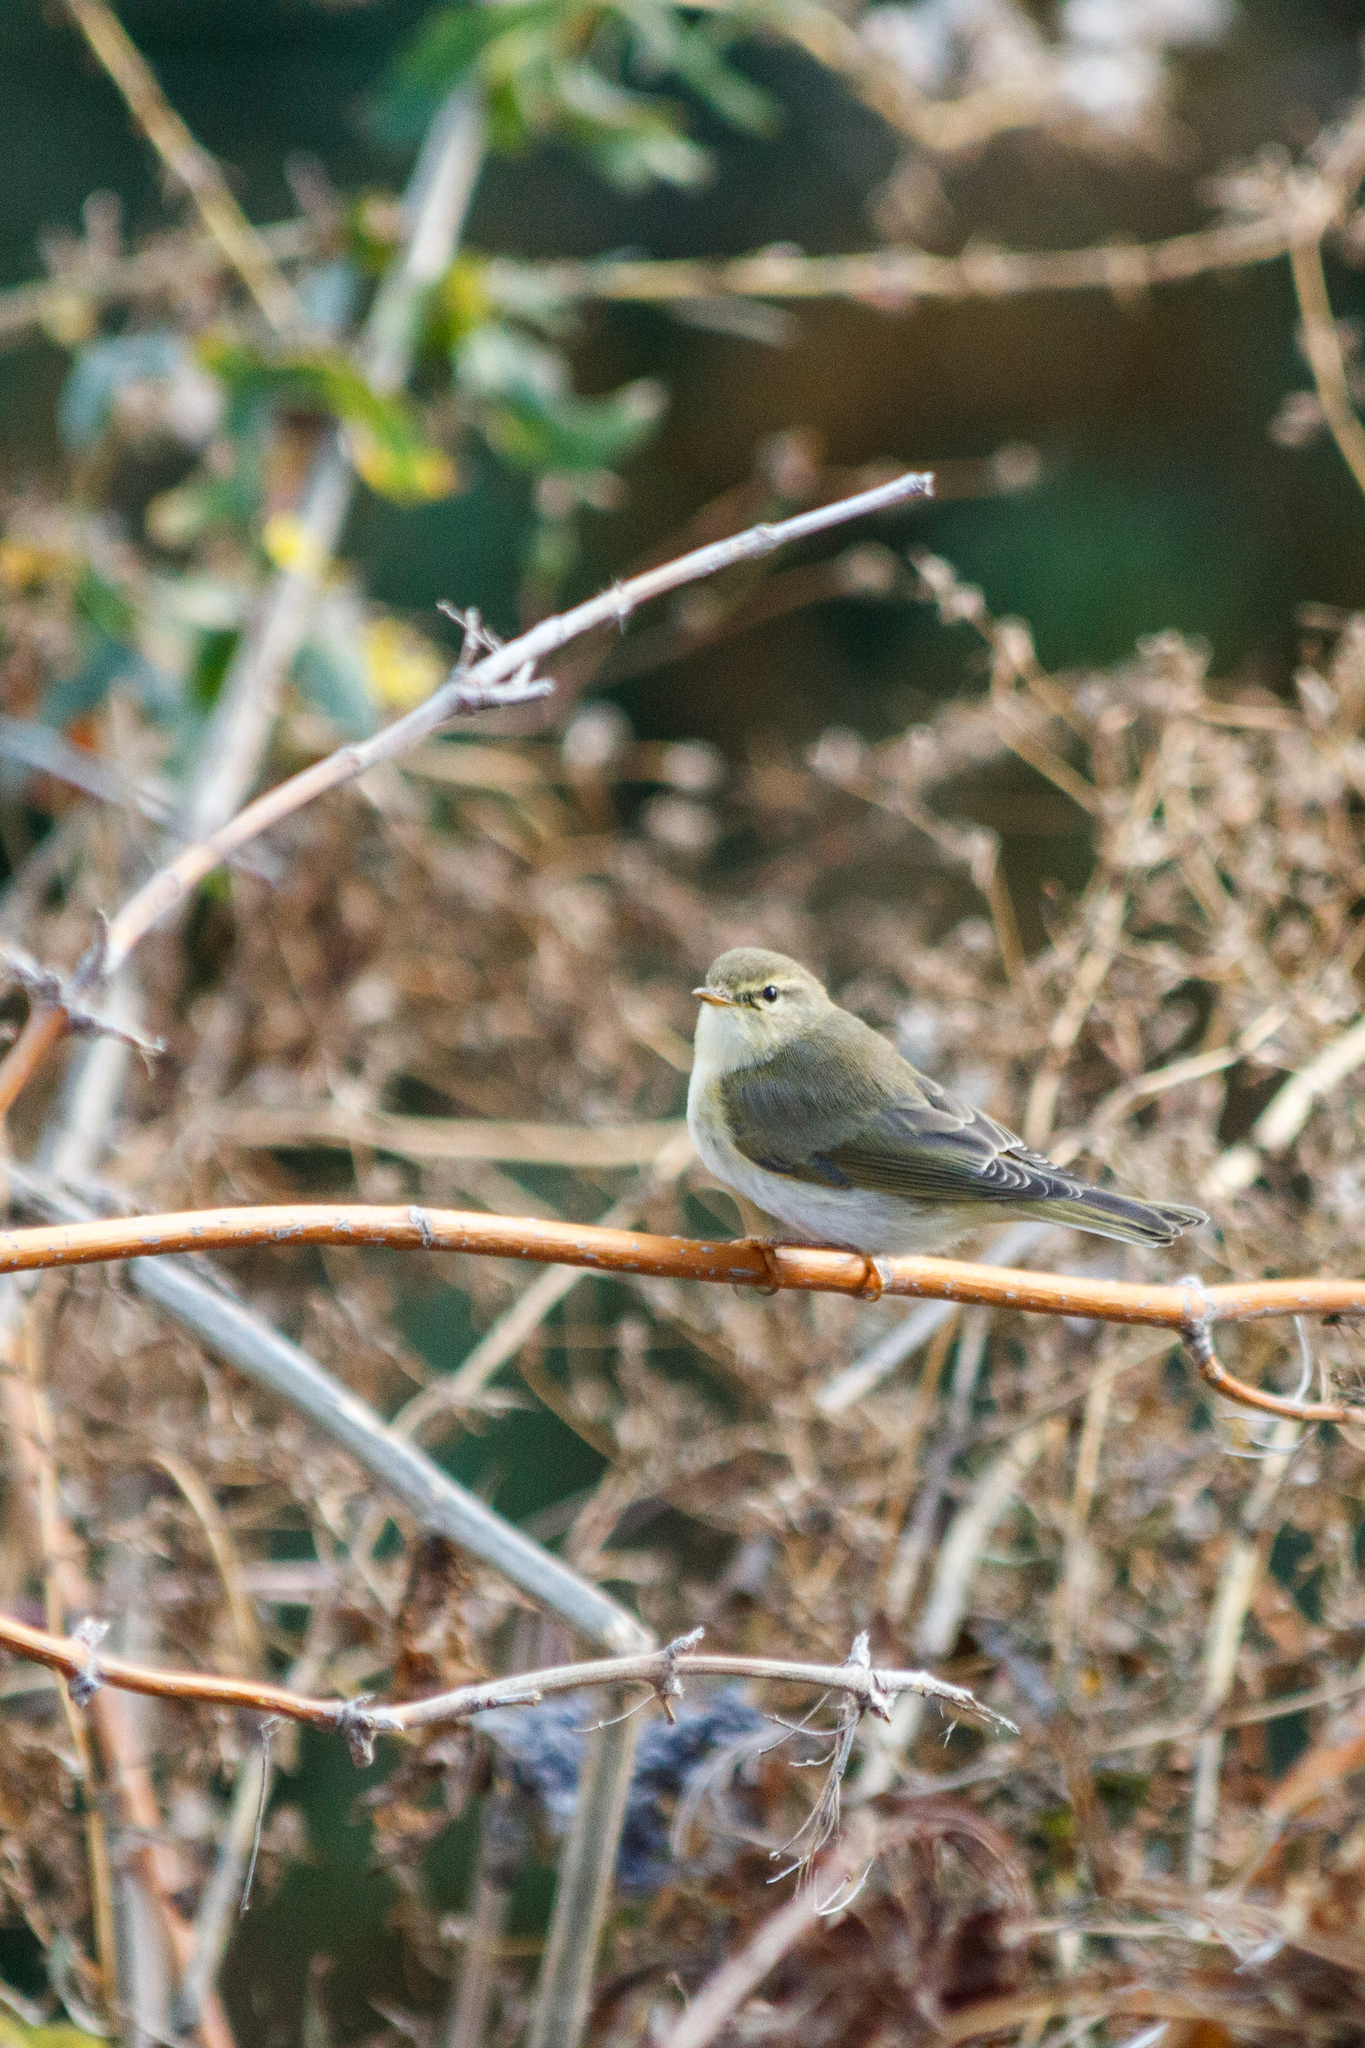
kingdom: Animalia
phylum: Chordata
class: Aves
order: Passeriformes
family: Phylloscopidae
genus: Phylloscopus
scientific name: Phylloscopus trochilus
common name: Willow warbler
